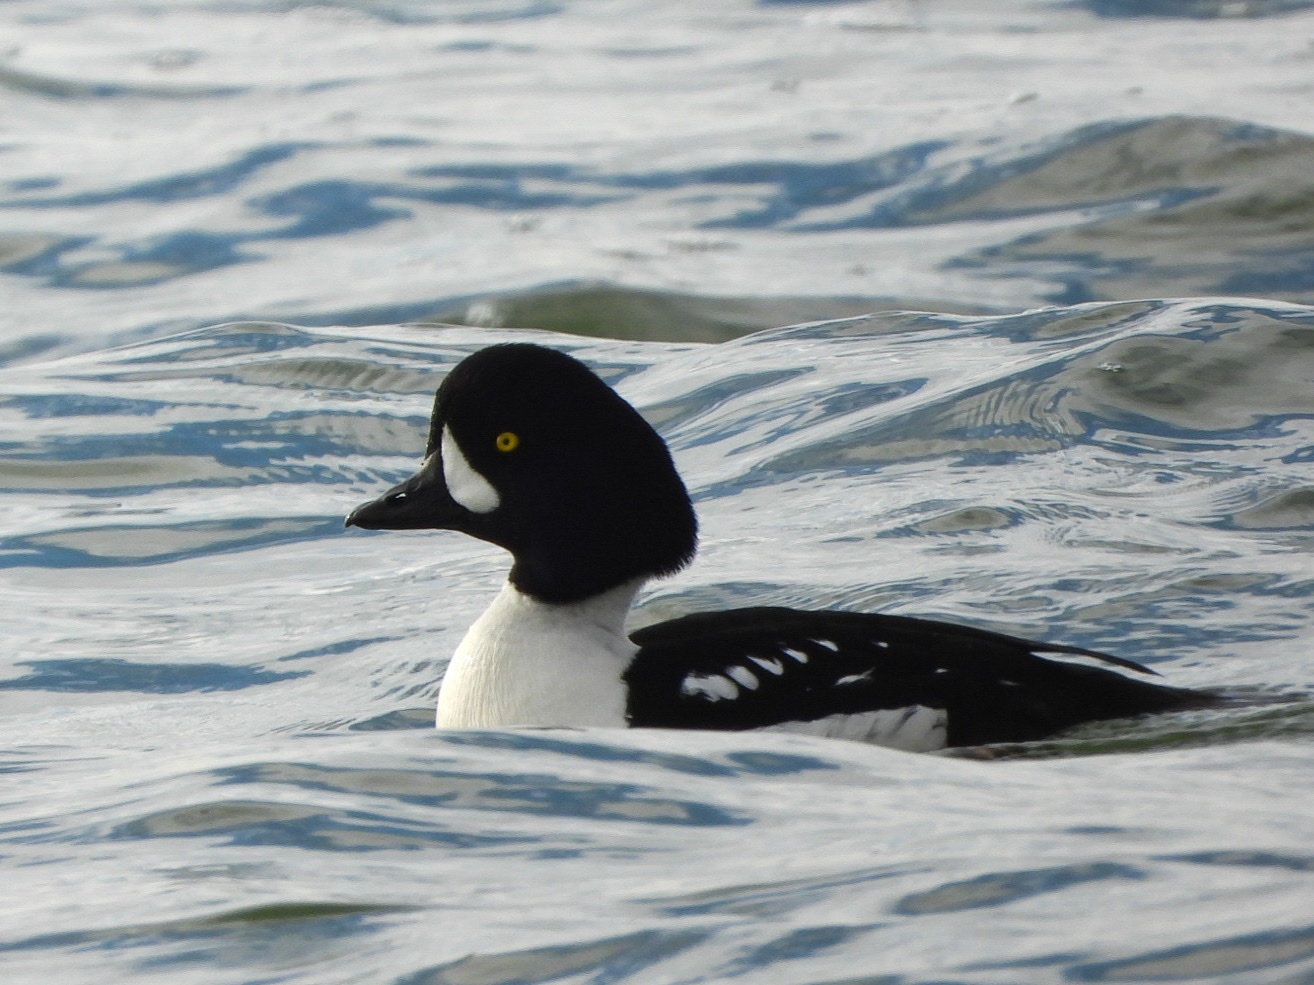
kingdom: Animalia
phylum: Chordata
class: Aves
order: Anseriformes
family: Anatidae
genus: Bucephala
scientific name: Bucephala islandica
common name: Barrow's goldeneye
